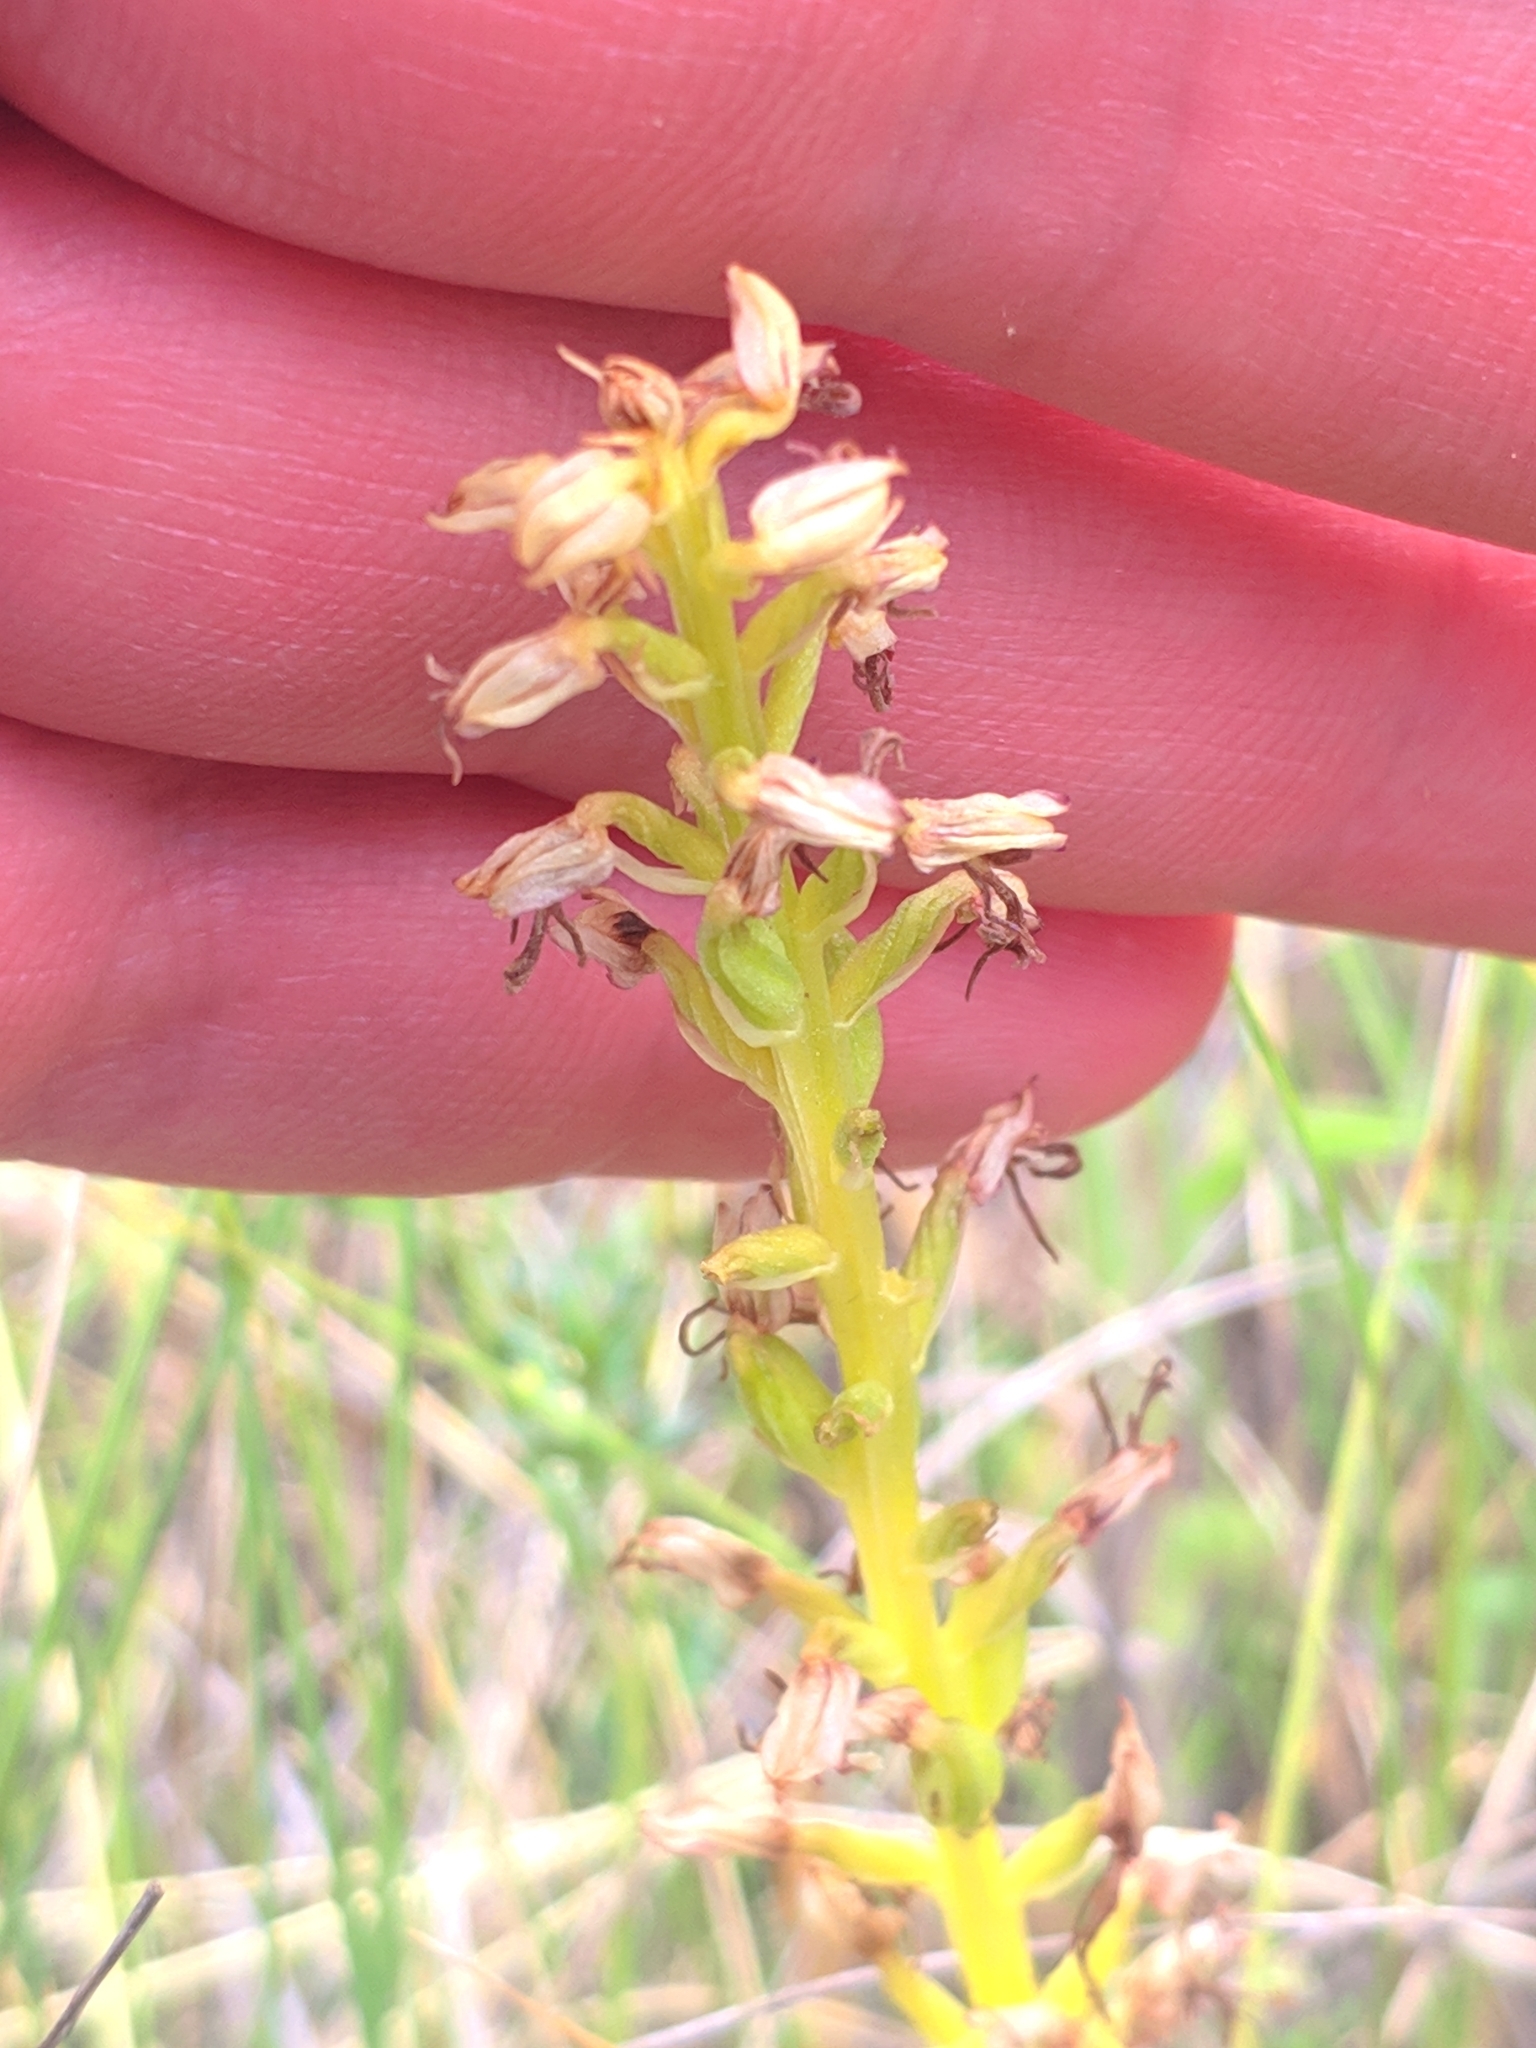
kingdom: Plantae
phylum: Tracheophyta
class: Liliopsida
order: Asparagales
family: Orchidaceae
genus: Orchis
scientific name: Orchis anthropophora
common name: Man orchid
